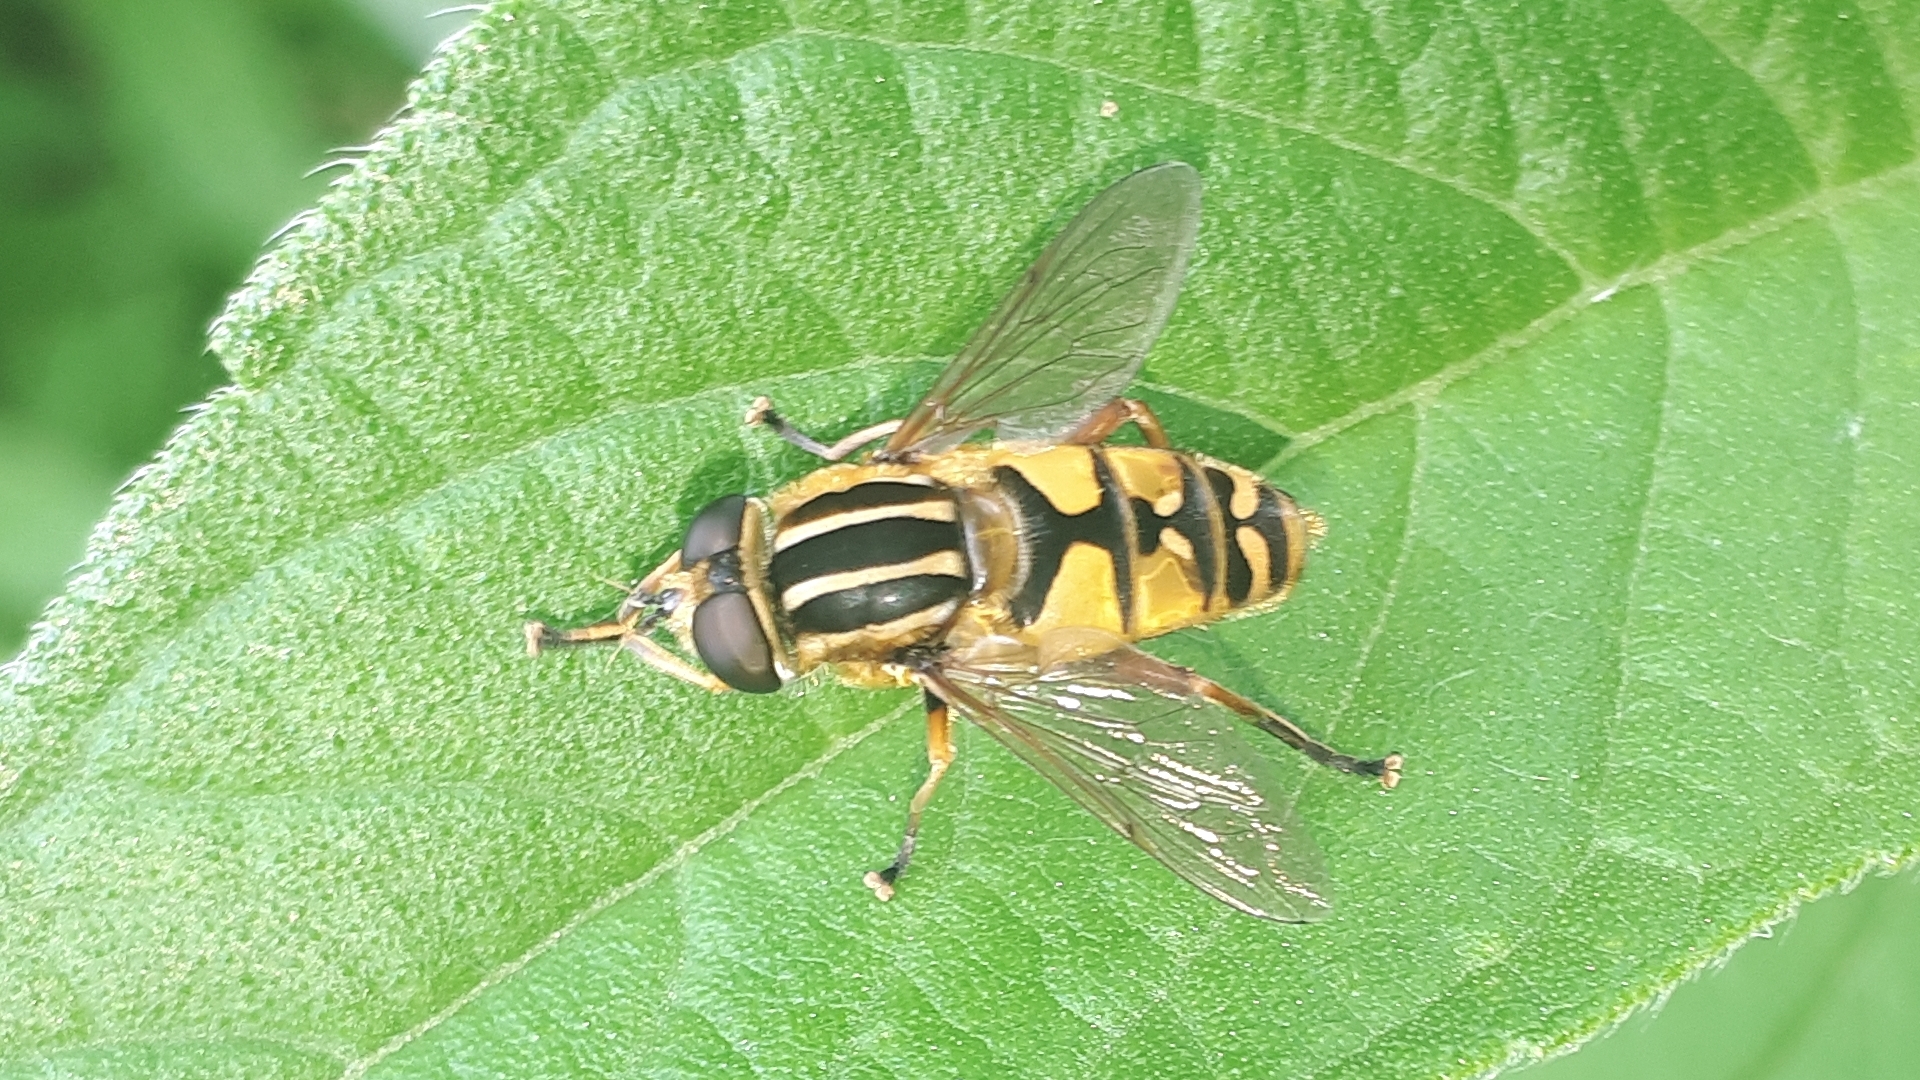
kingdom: Animalia
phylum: Arthropoda
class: Insecta
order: Diptera
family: Syrphidae
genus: Helophilus
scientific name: Helophilus pendulus
